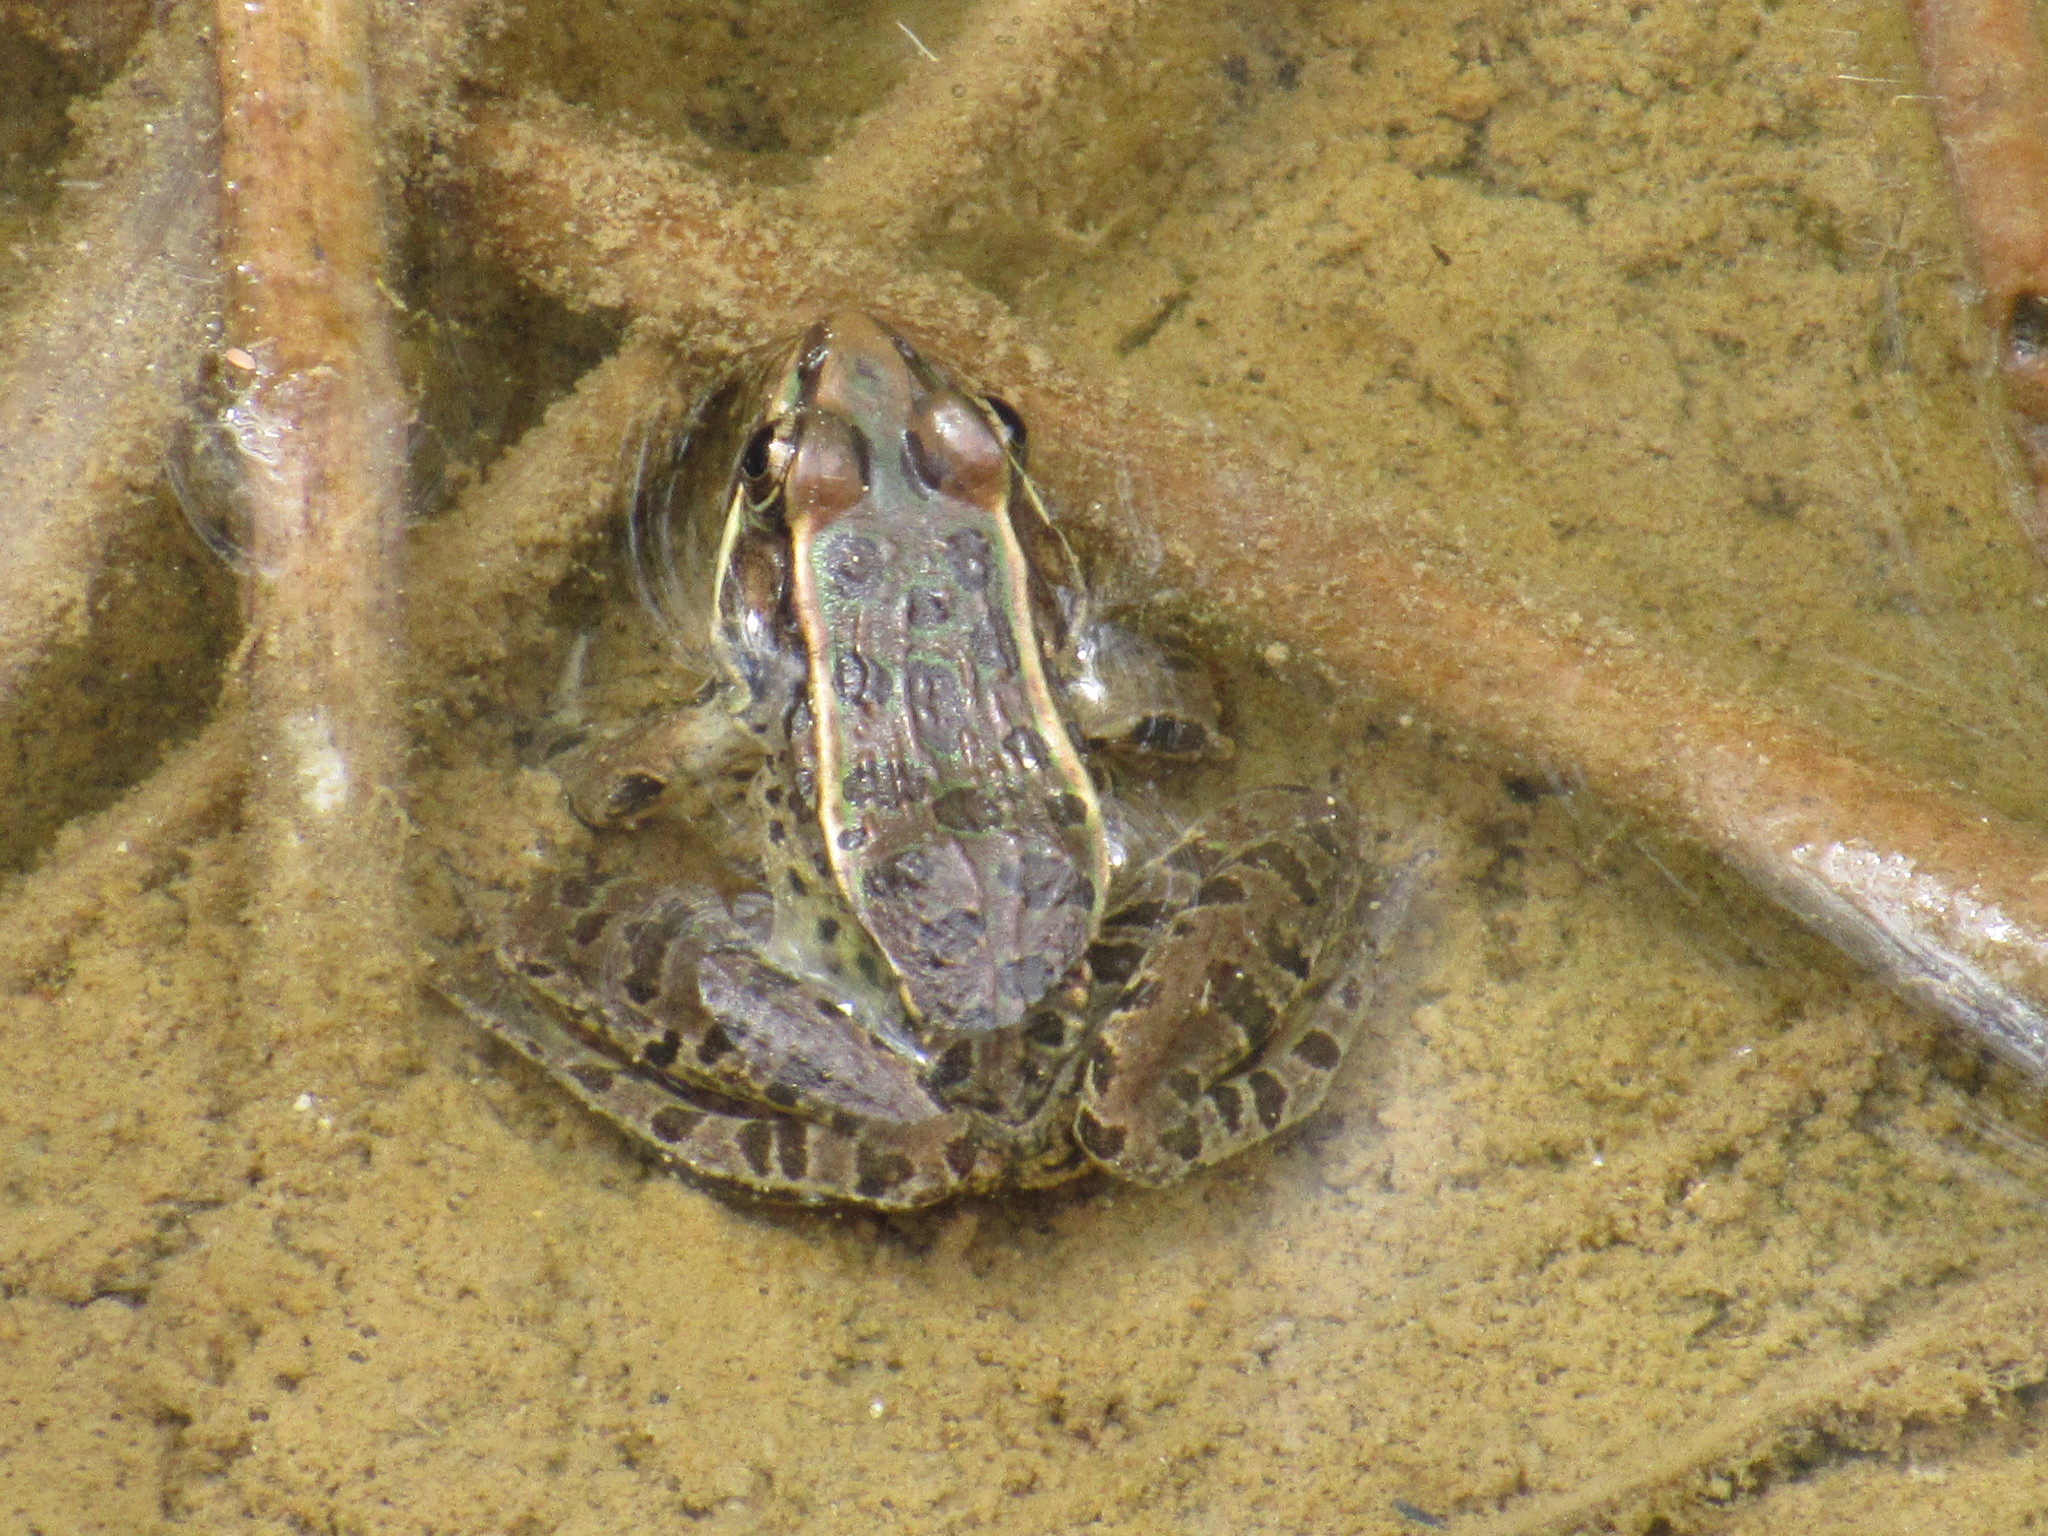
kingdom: Animalia
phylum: Chordata
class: Amphibia
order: Anura
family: Ranidae
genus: Lithobates
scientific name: Lithobates neovolcanicus
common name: Transverse volcanic leopard frog
